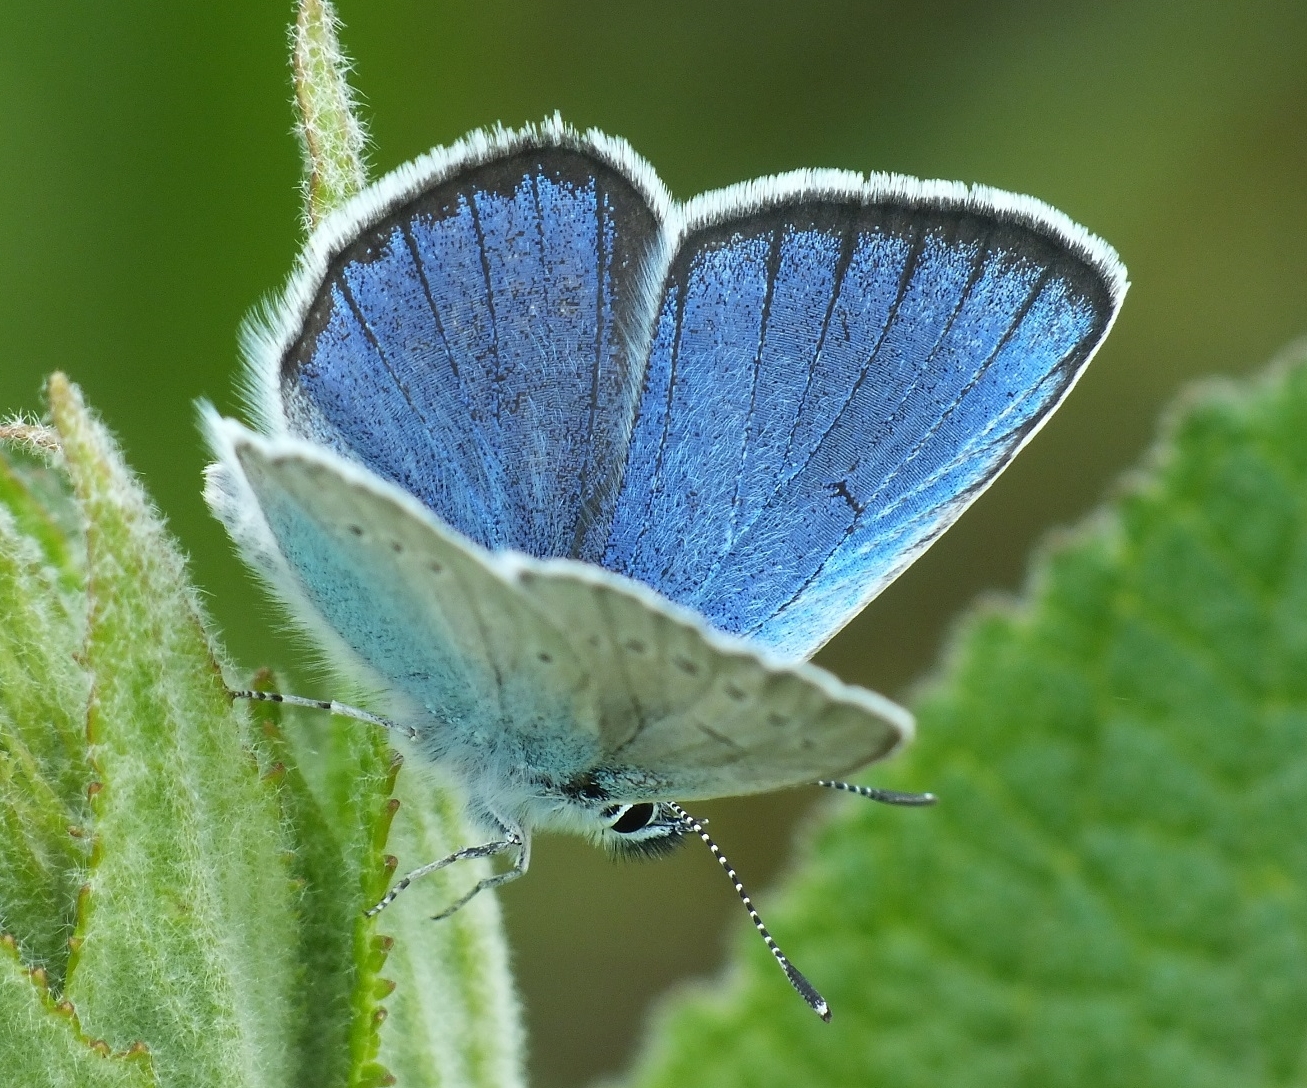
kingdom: Animalia
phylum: Arthropoda
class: Insecta
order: Lepidoptera
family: Lycaenidae
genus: Agrodiaetus
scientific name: Agrodiaetus Neolysandra coelestina
